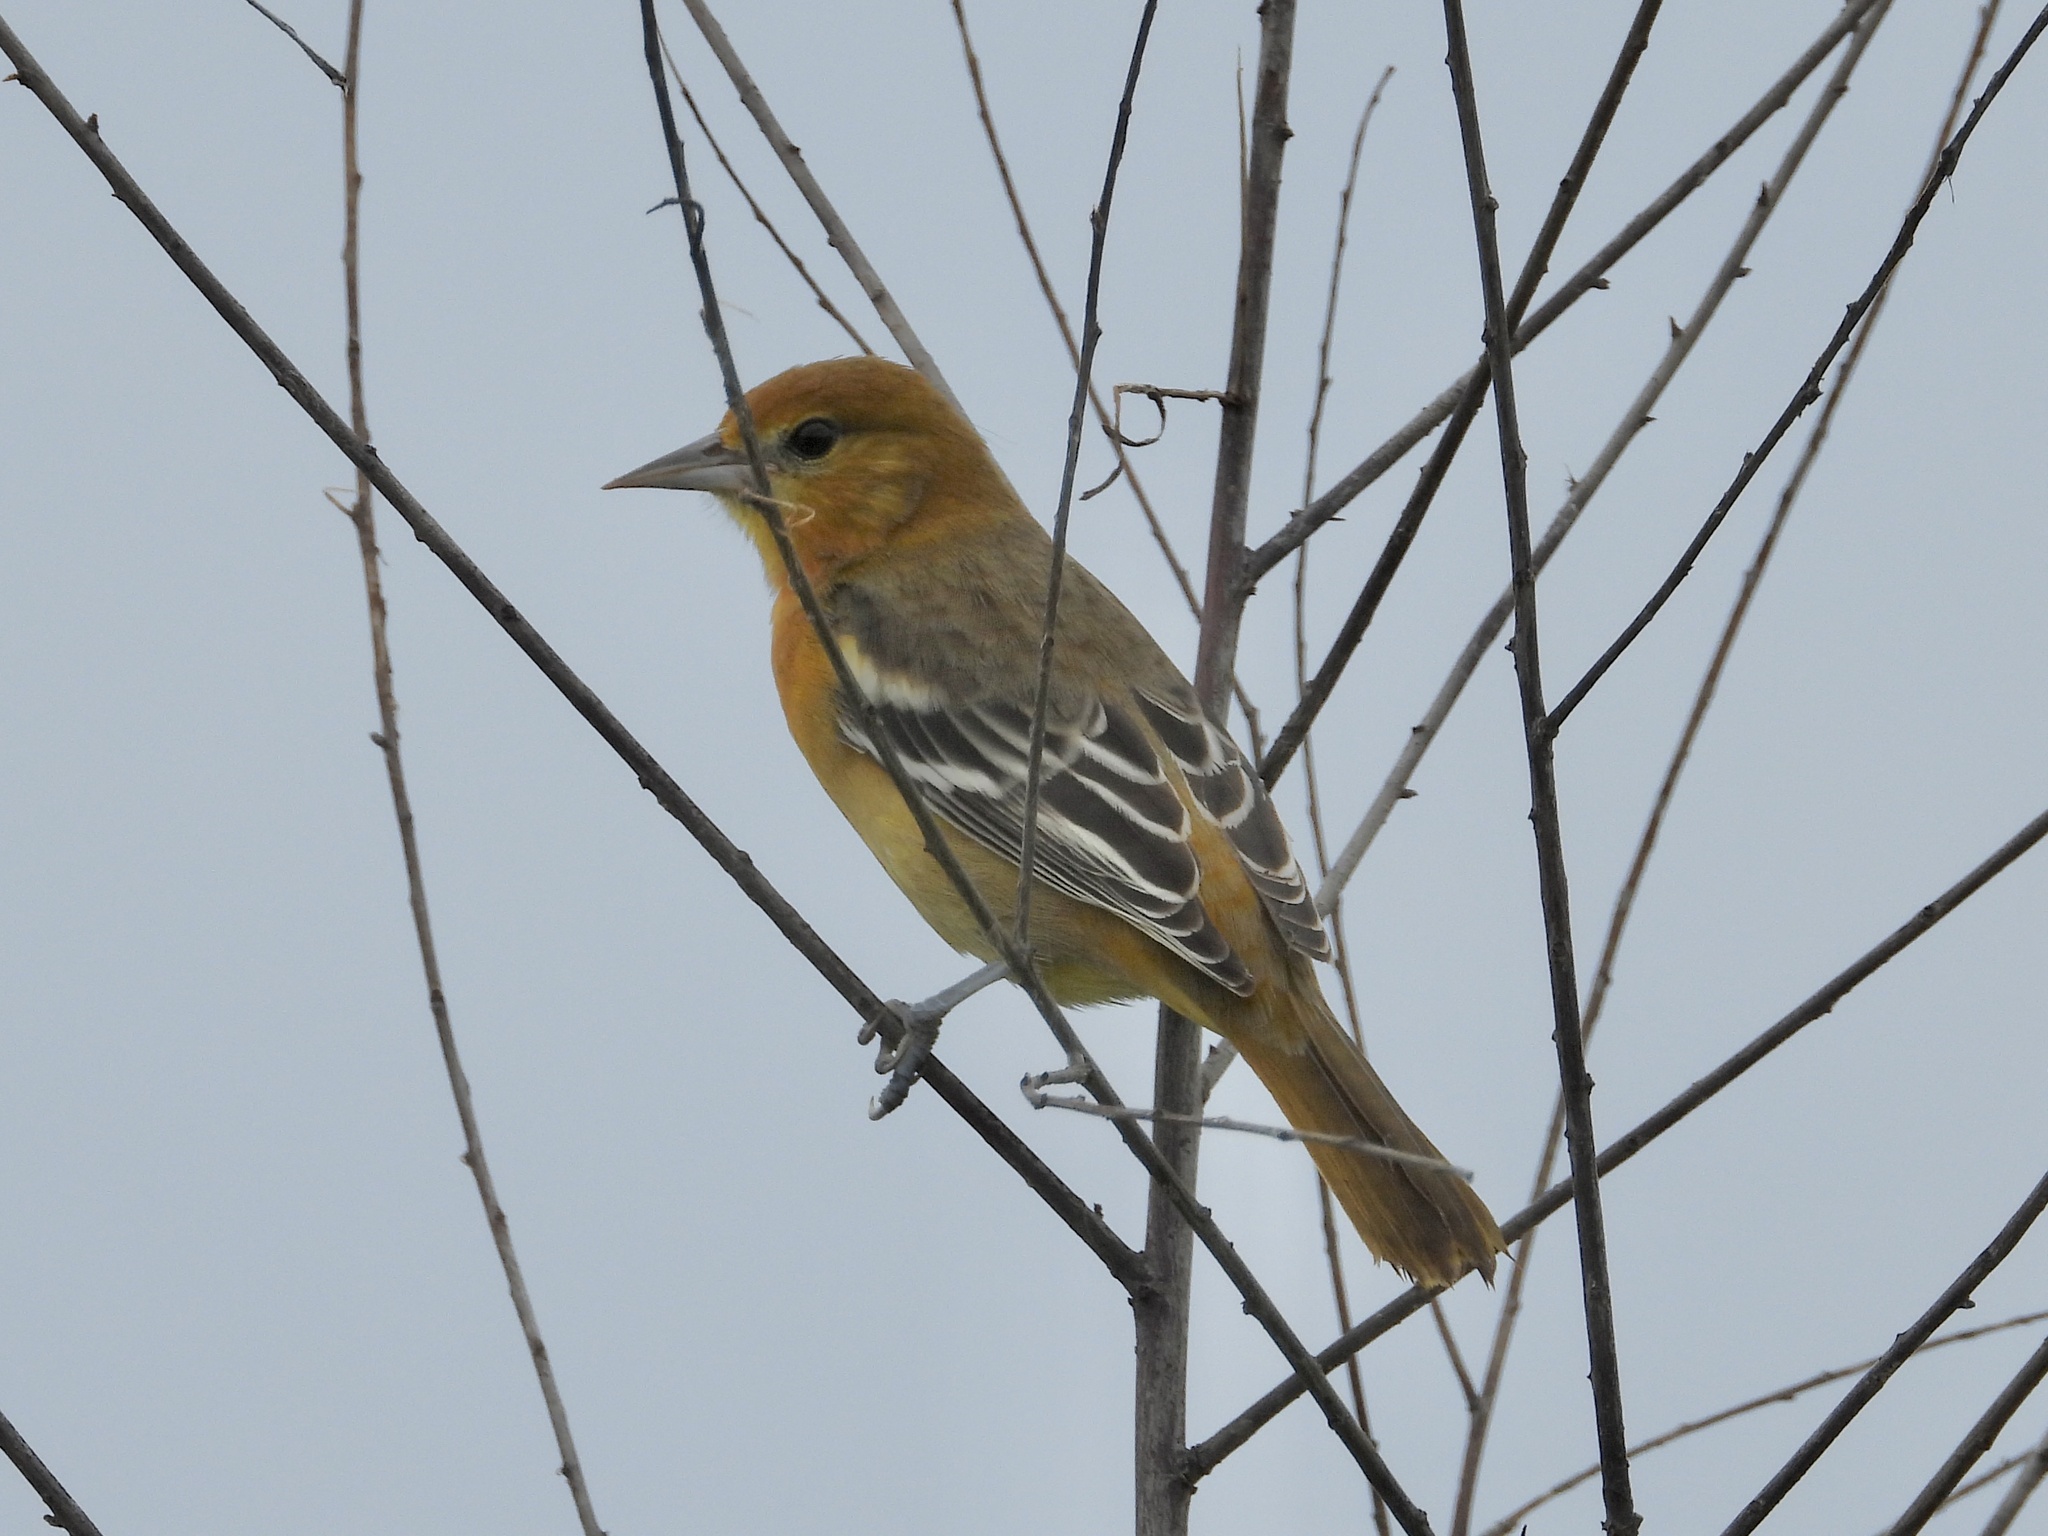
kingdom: Animalia
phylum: Chordata
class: Aves
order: Passeriformes
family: Icteridae
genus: Icterus
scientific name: Icterus galbula
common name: Baltimore oriole
